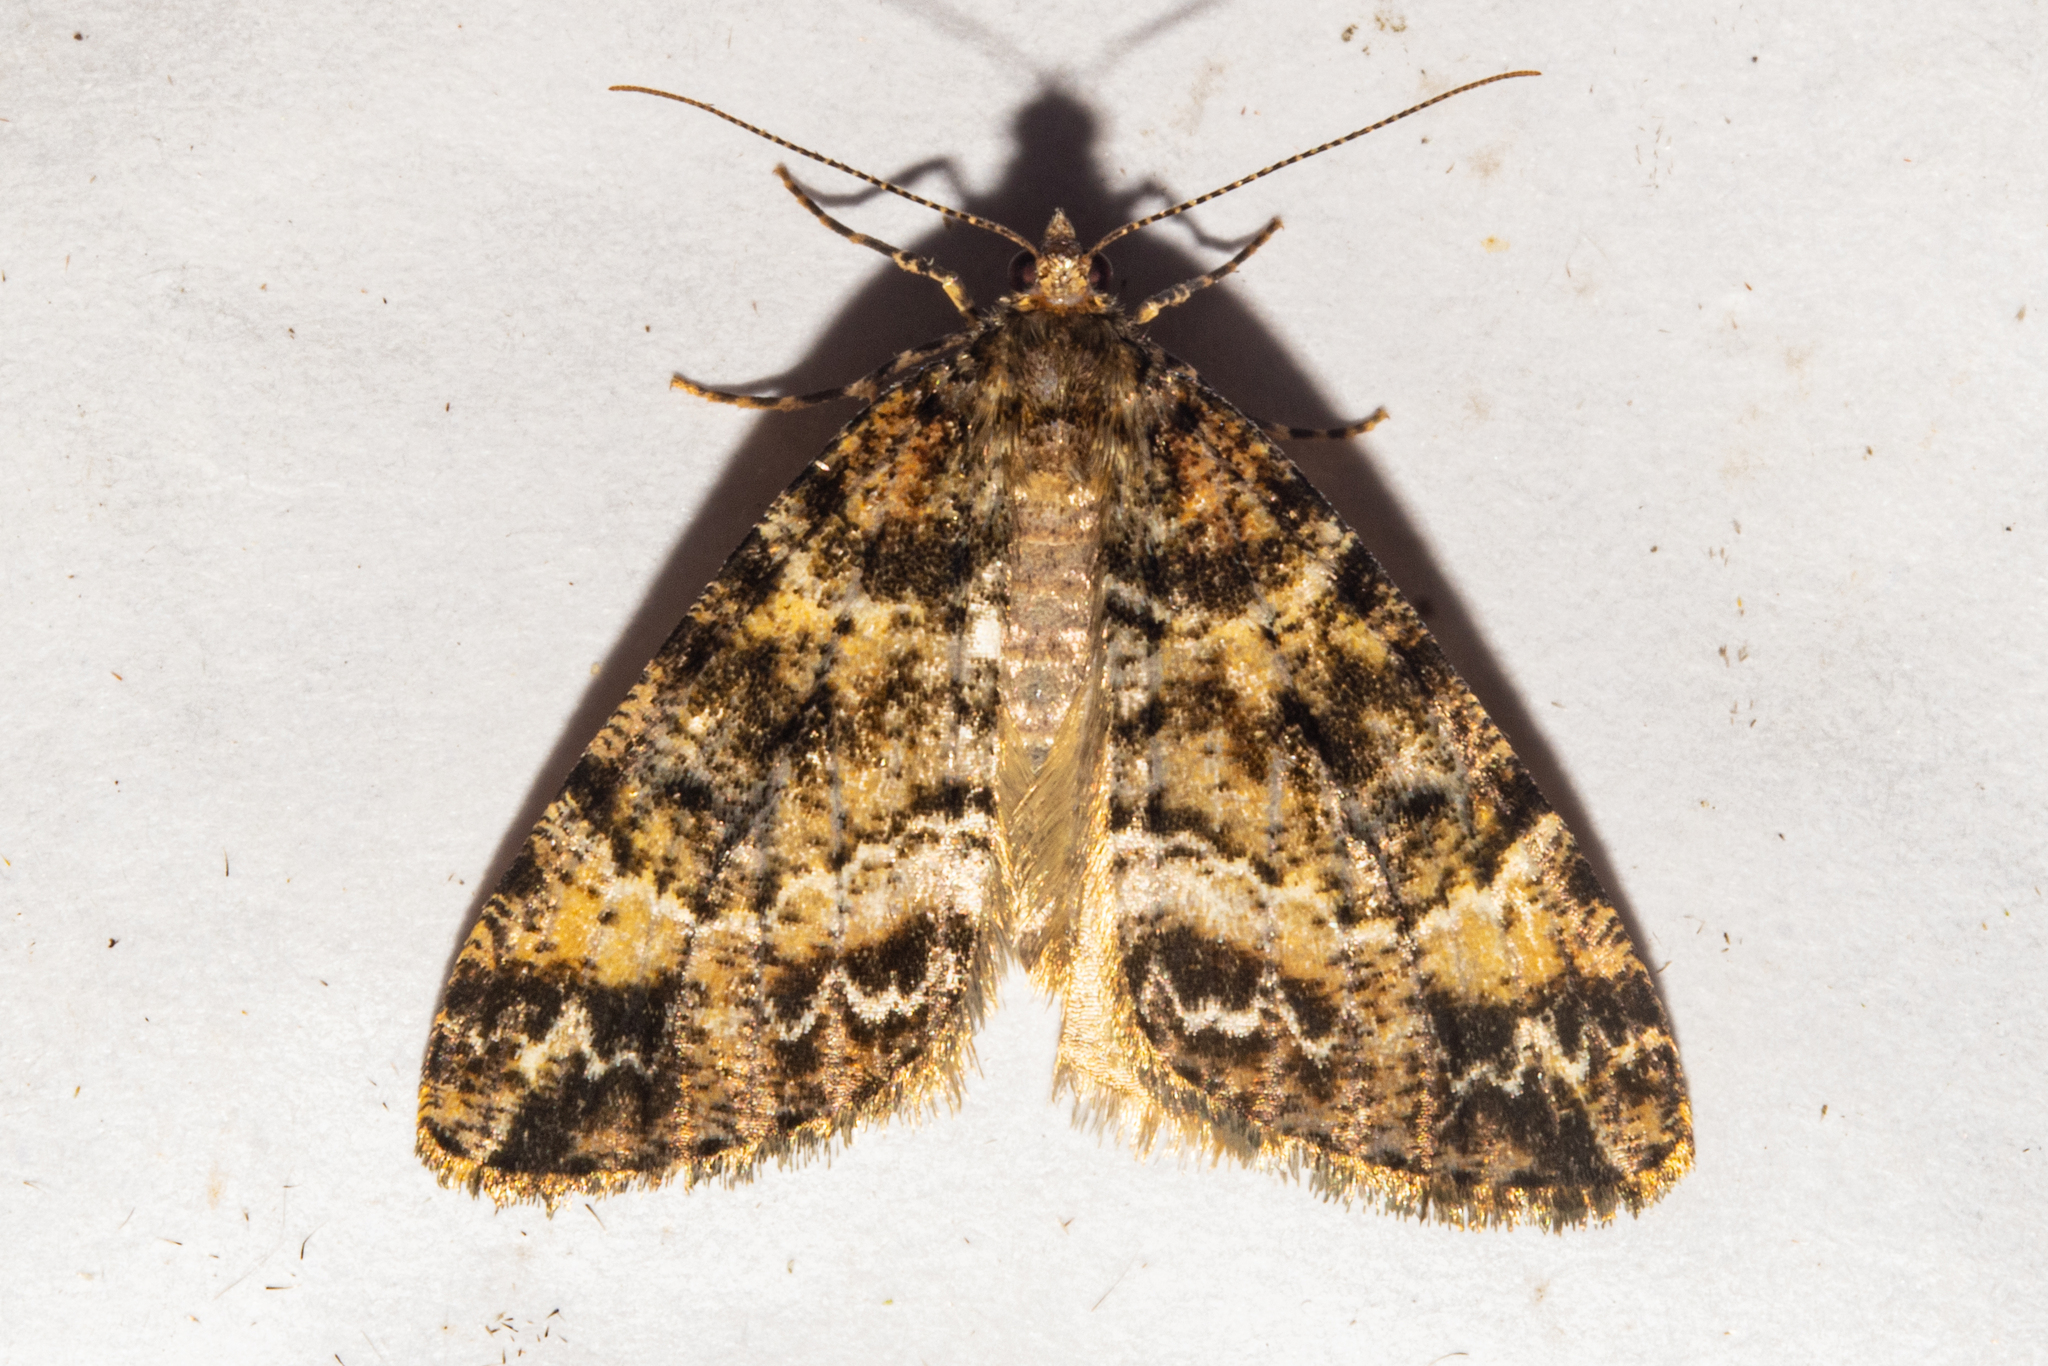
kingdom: Animalia
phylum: Arthropoda
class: Insecta
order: Lepidoptera
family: Geometridae
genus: Pseudocoremia
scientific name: Pseudocoremia productata
